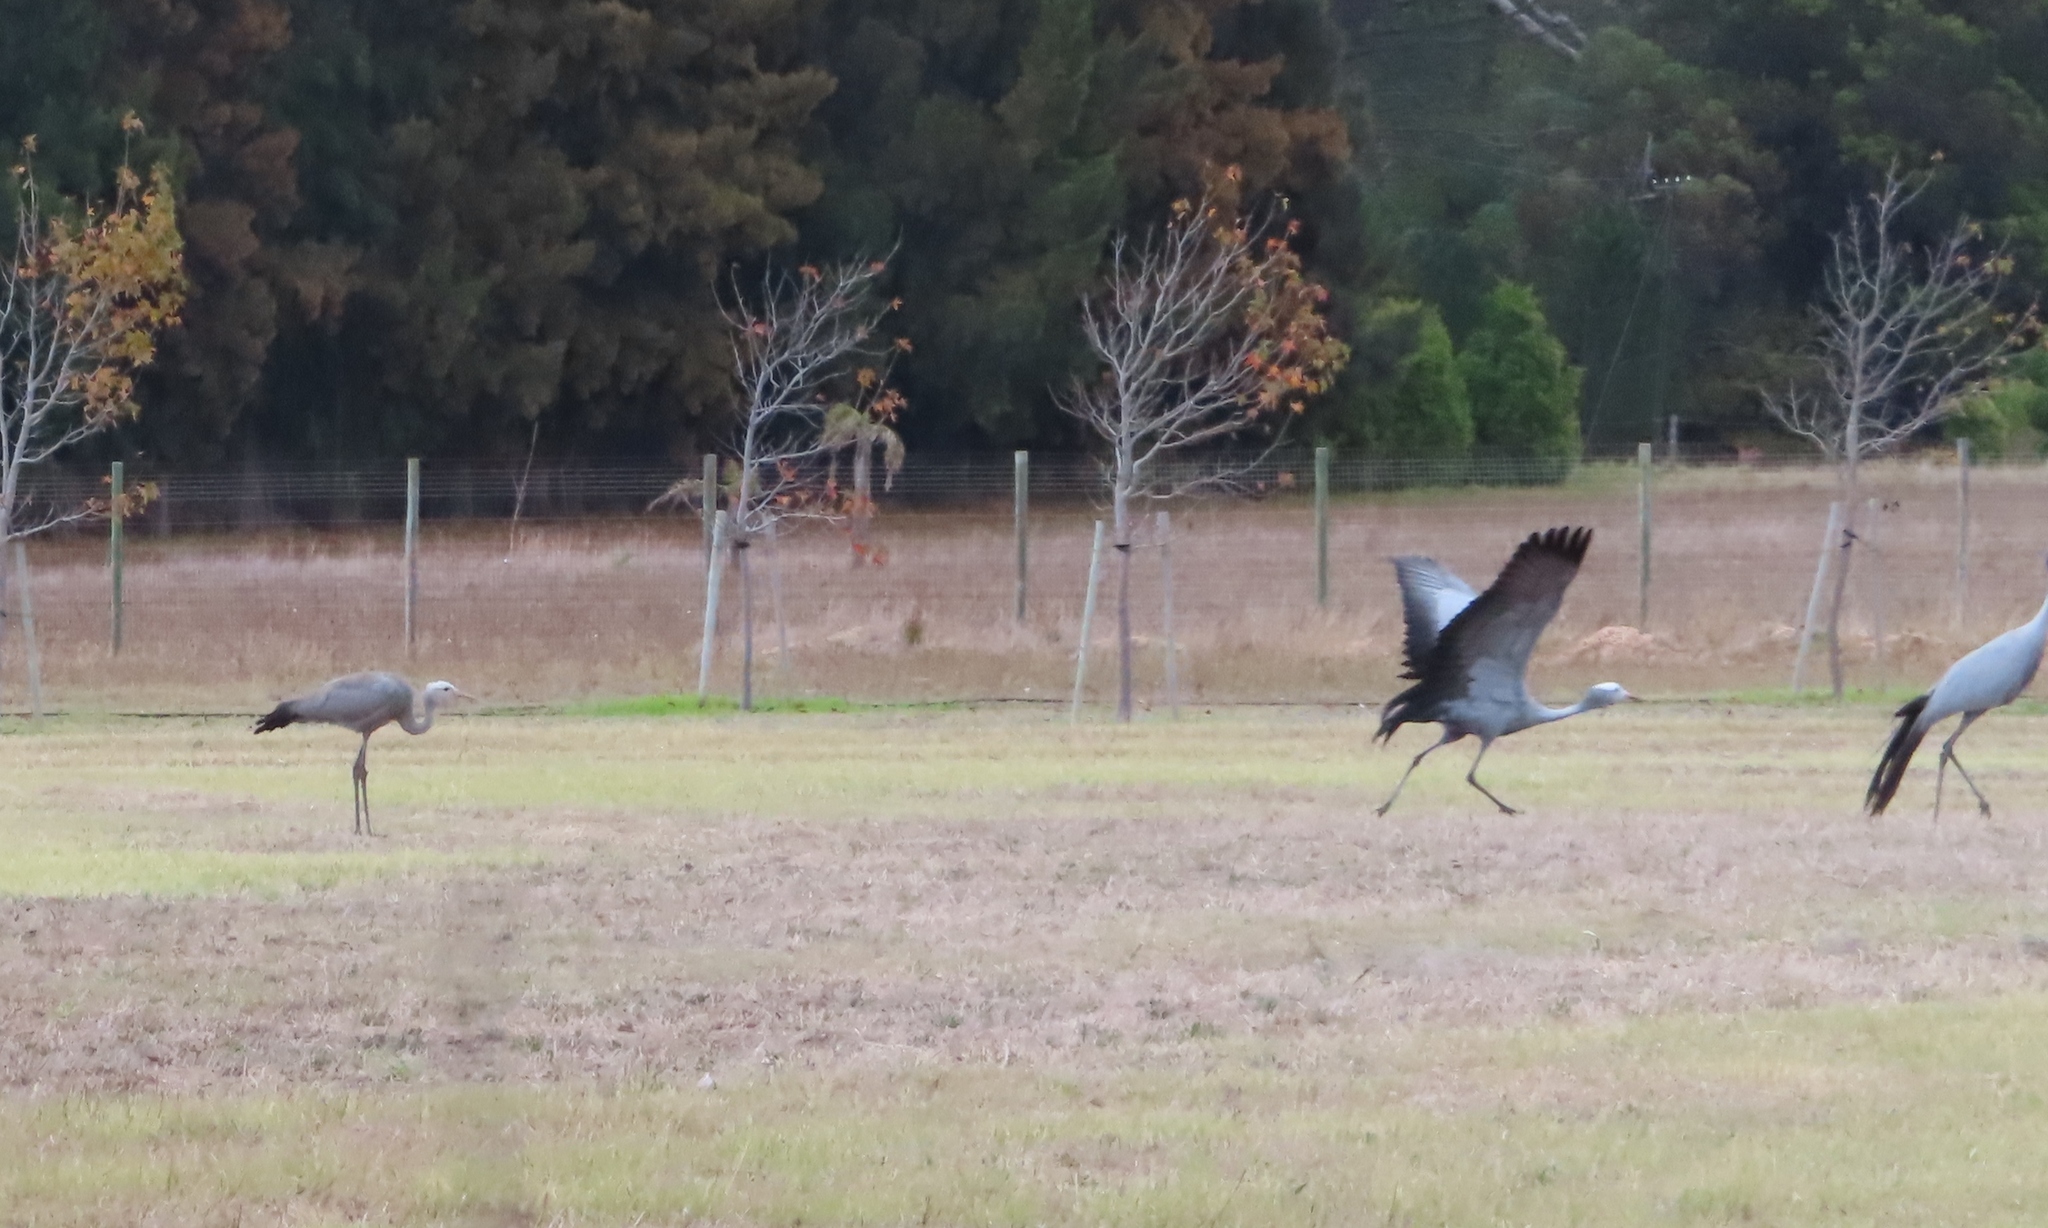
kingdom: Animalia
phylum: Chordata
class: Aves
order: Gruiformes
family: Gruidae
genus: Anthropoides
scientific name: Anthropoides paradiseus
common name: Blue crane
